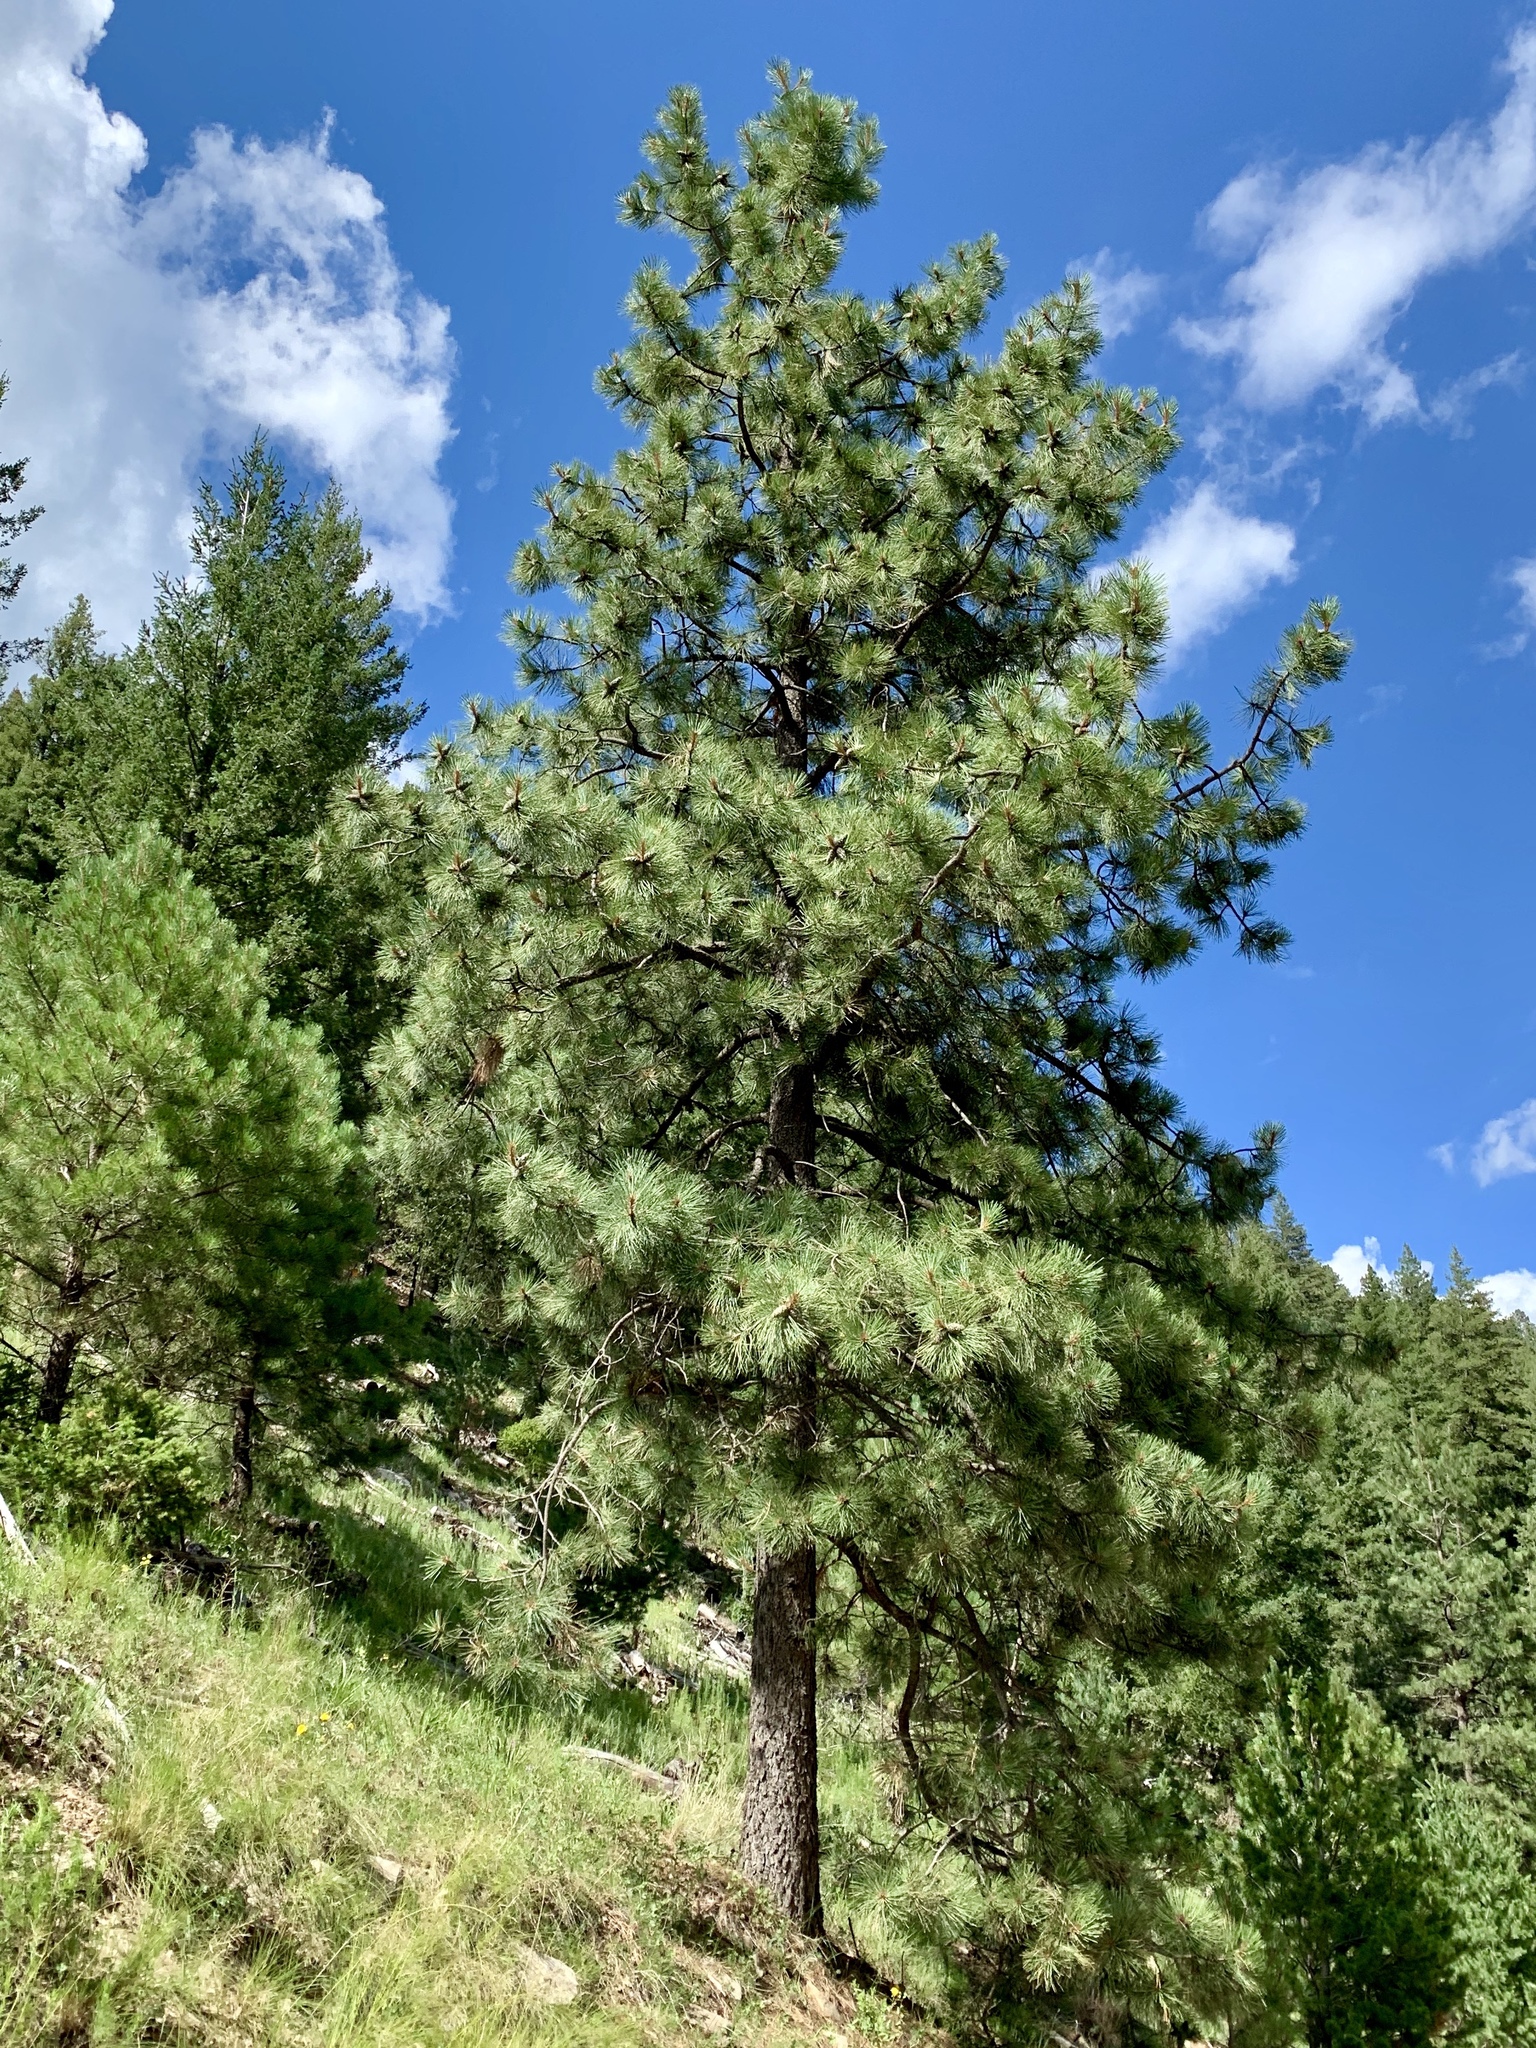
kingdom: Plantae
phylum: Tracheophyta
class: Pinopsida
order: Pinales
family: Pinaceae
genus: Pinus
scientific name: Pinus ponderosa
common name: Western yellow-pine
